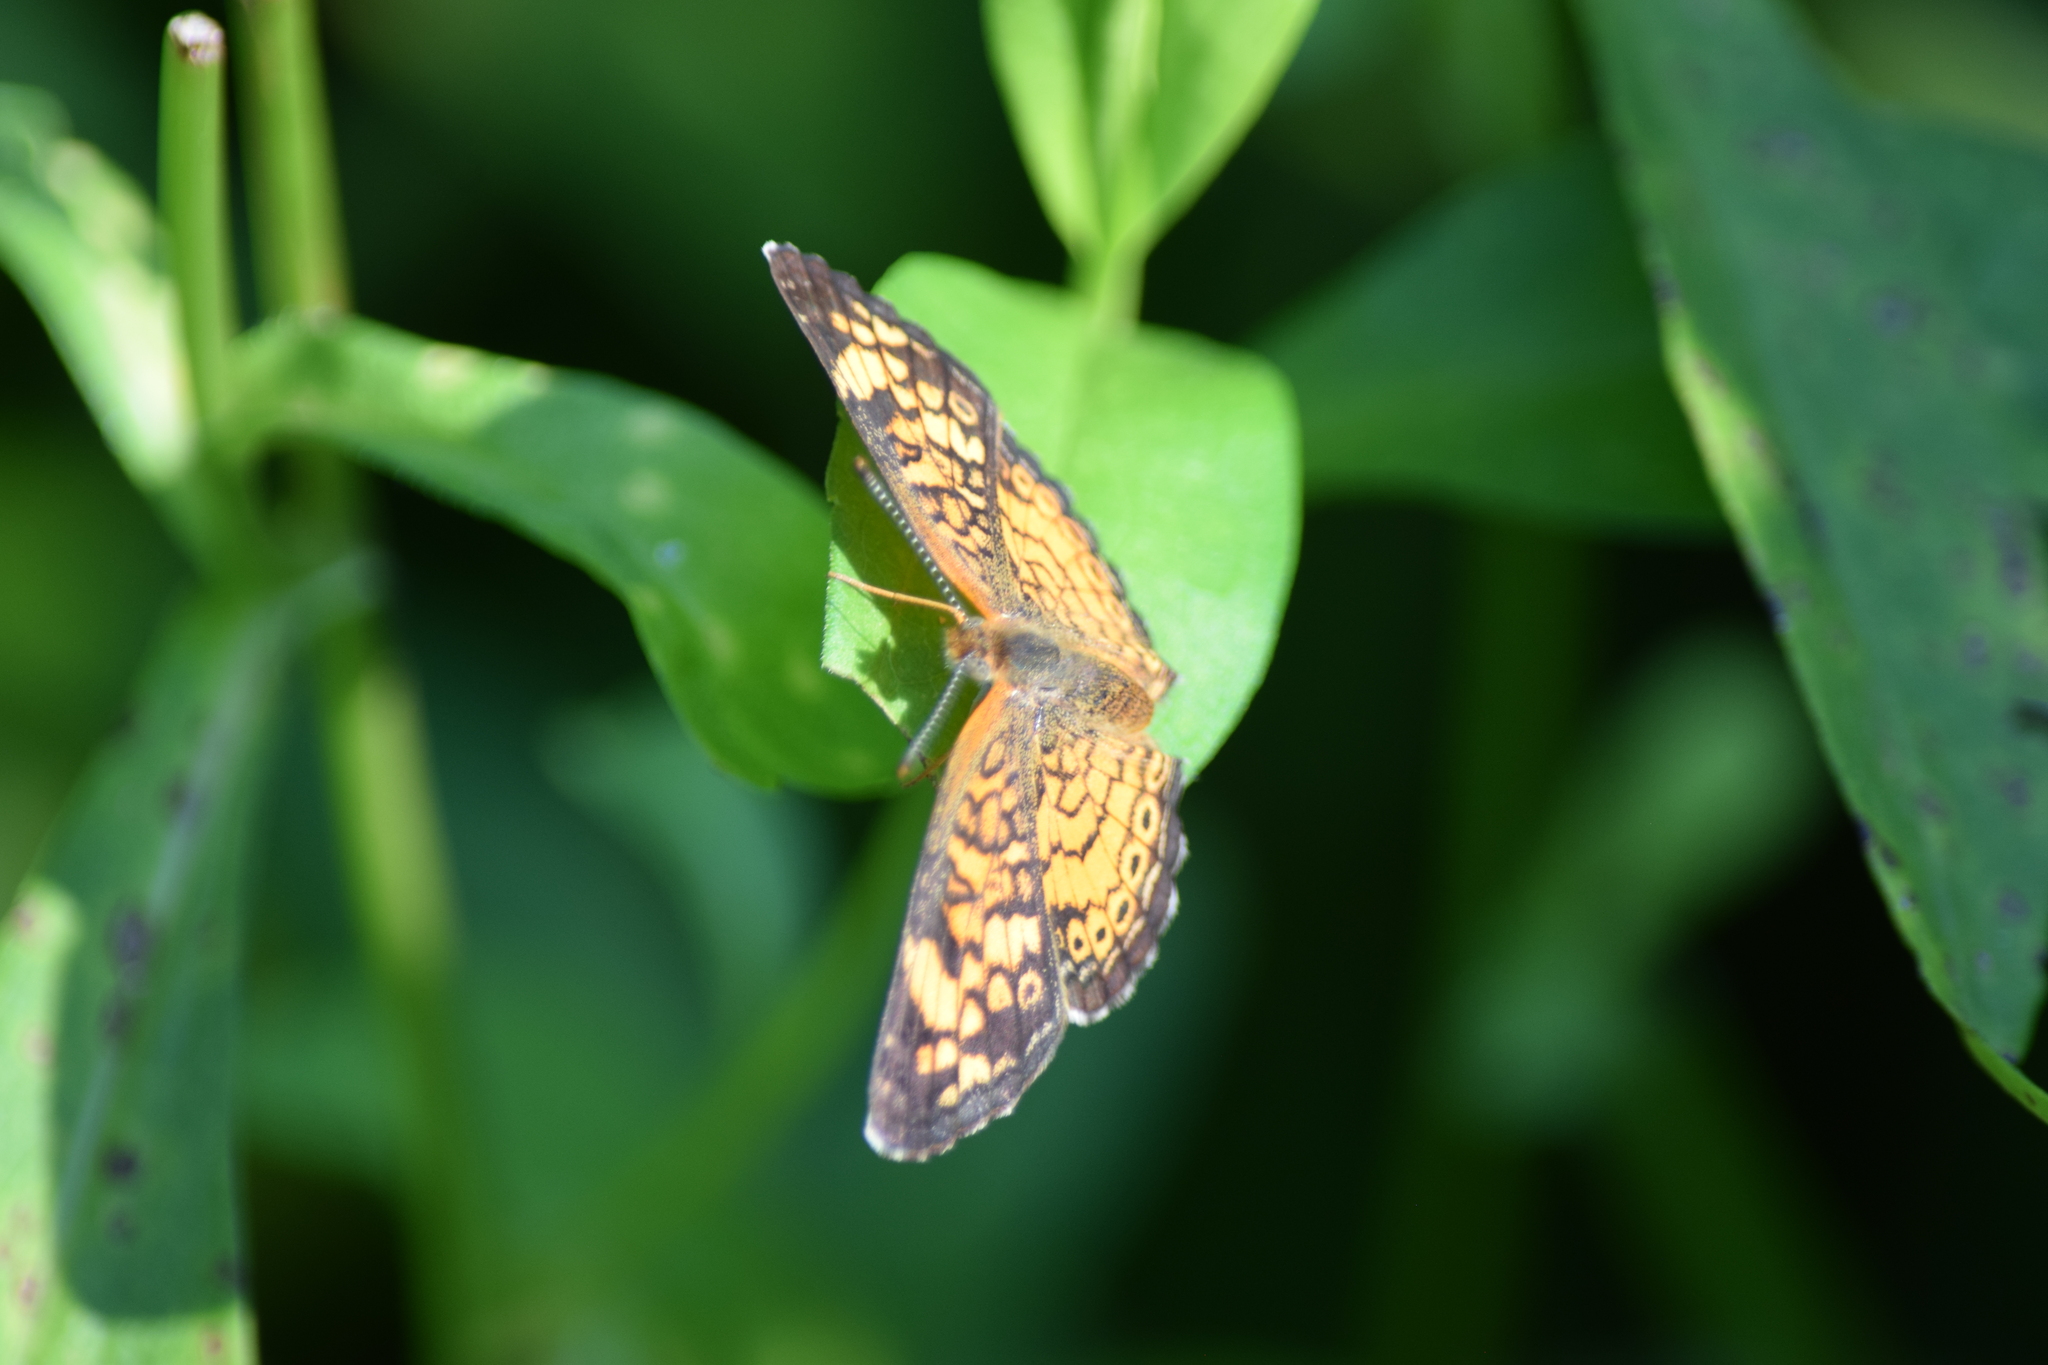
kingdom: Animalia
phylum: Arthropoda
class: Insecta
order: Lepidoptera
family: Nymphalidae
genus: Phyciodes
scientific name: Phyciodes tharos
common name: Pearl crescent
